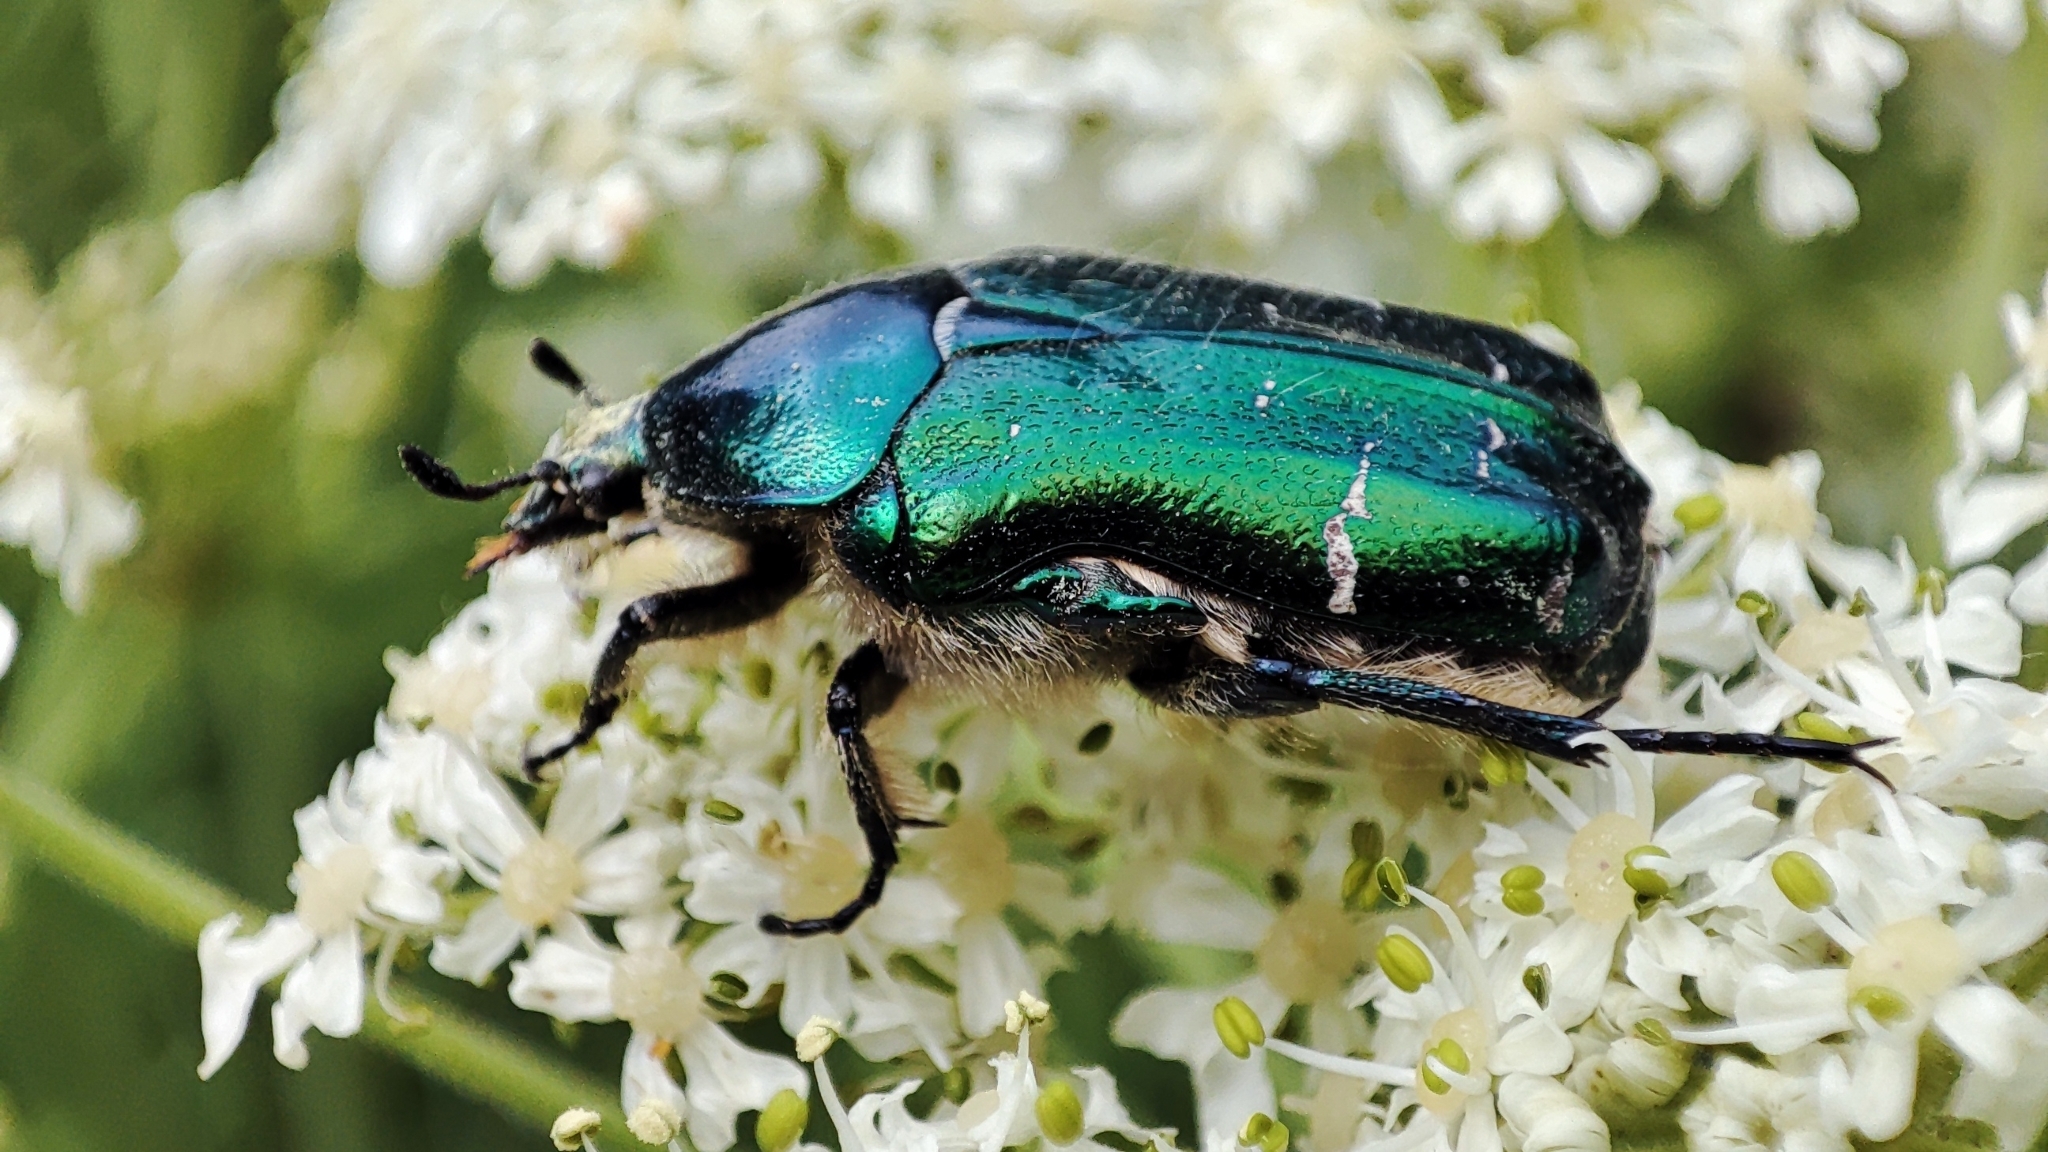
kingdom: Animalia
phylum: Arthropoda
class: Insecta
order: Coleoptera
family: Scarabaeidae
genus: Cetonia
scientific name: Cetonia aurata
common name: Rose chafer
